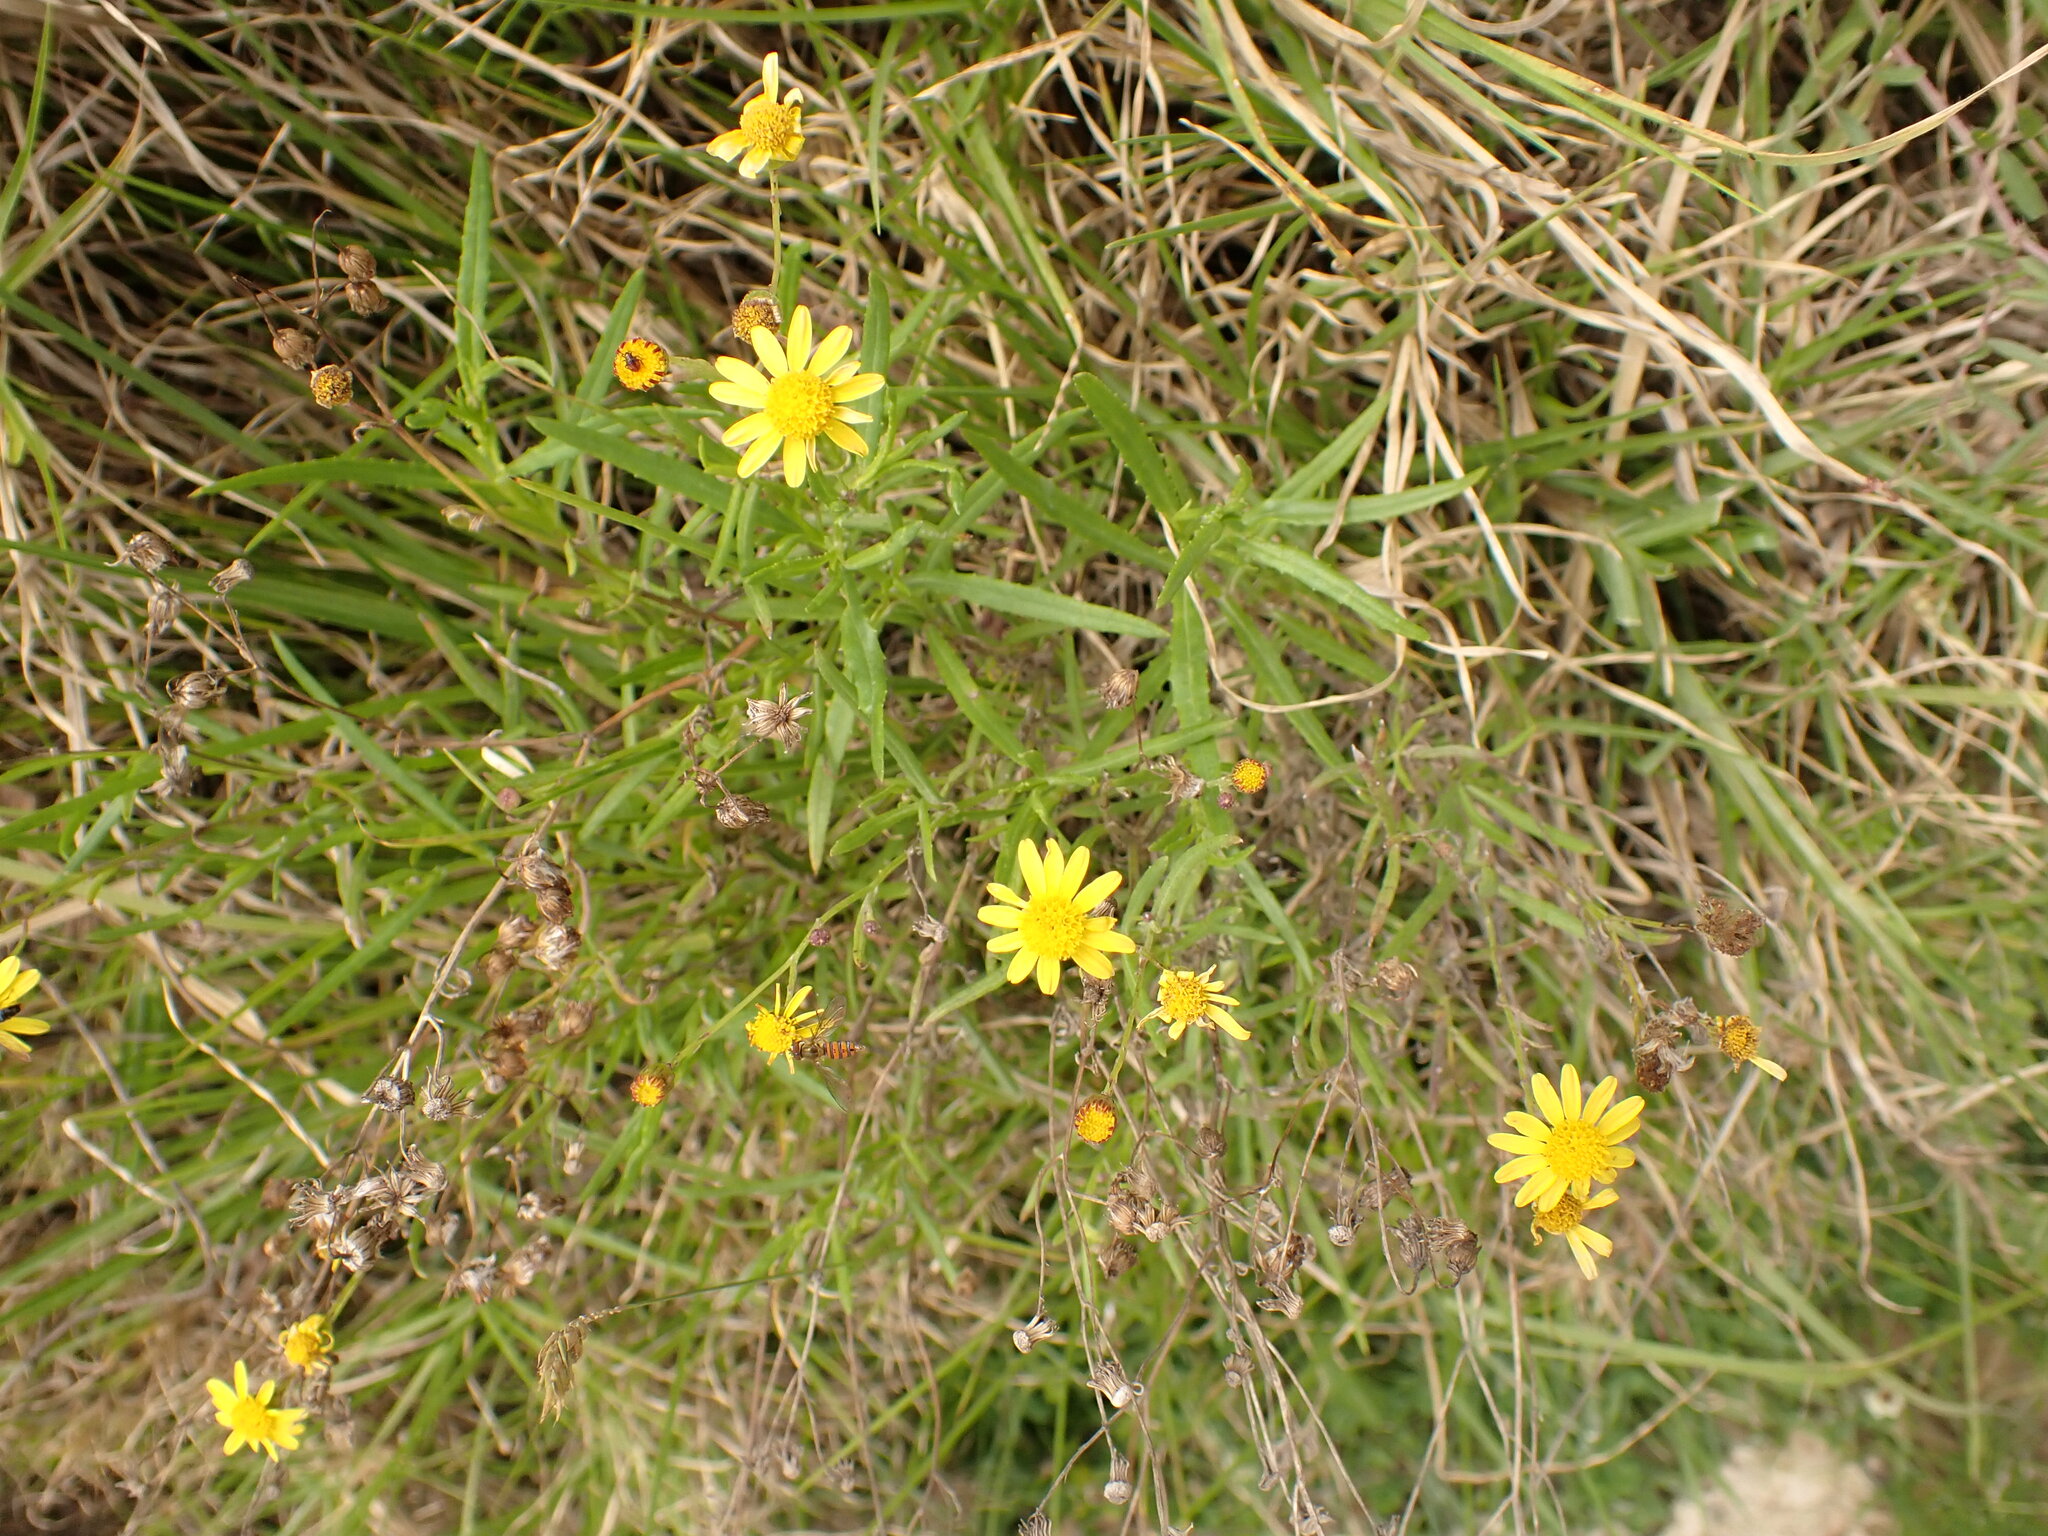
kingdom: Plantae
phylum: Tracheophyta
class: Magnoliopsida
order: Asterales
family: Asteraceae
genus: Senecio
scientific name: Senecio madagascariensis
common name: Madagascar ragwort
